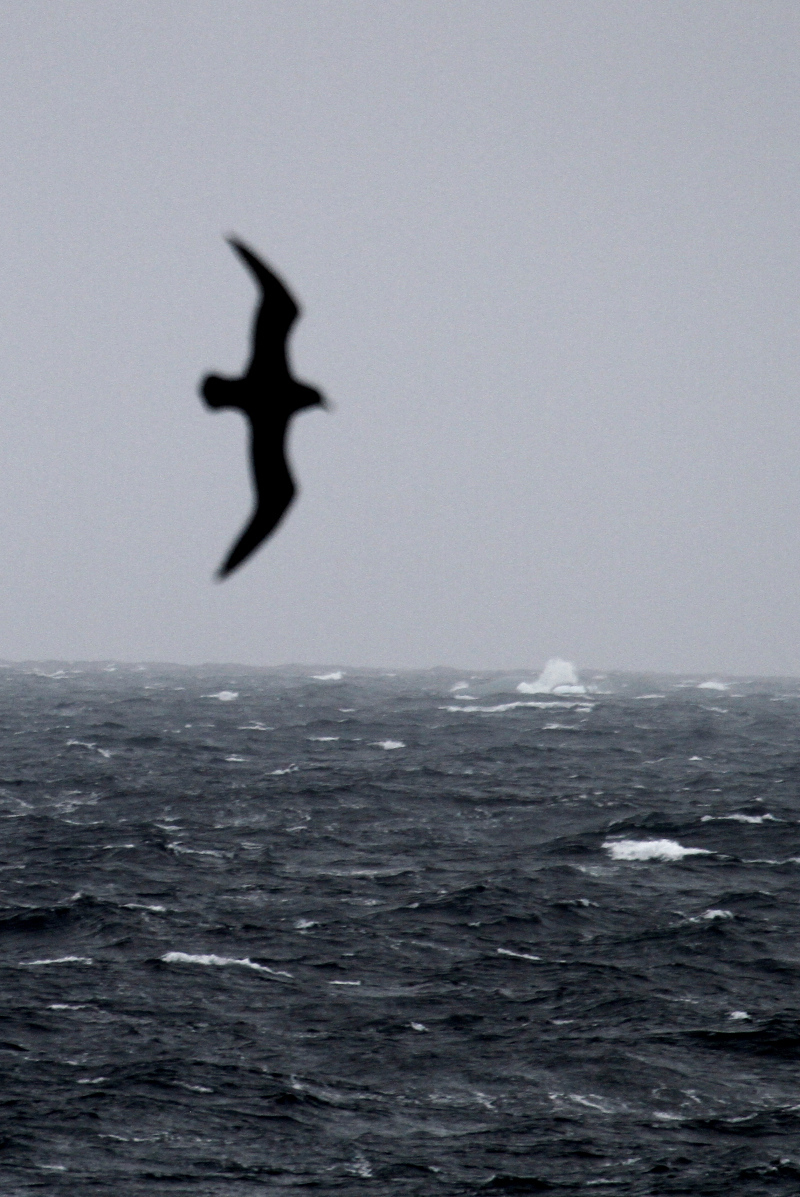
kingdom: Animalia
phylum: Chordata
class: Aves
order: Procellariiformes
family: Procellariidae
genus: Procellaria
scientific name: Procellaria aequinoctialis
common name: White-chinned petrel
